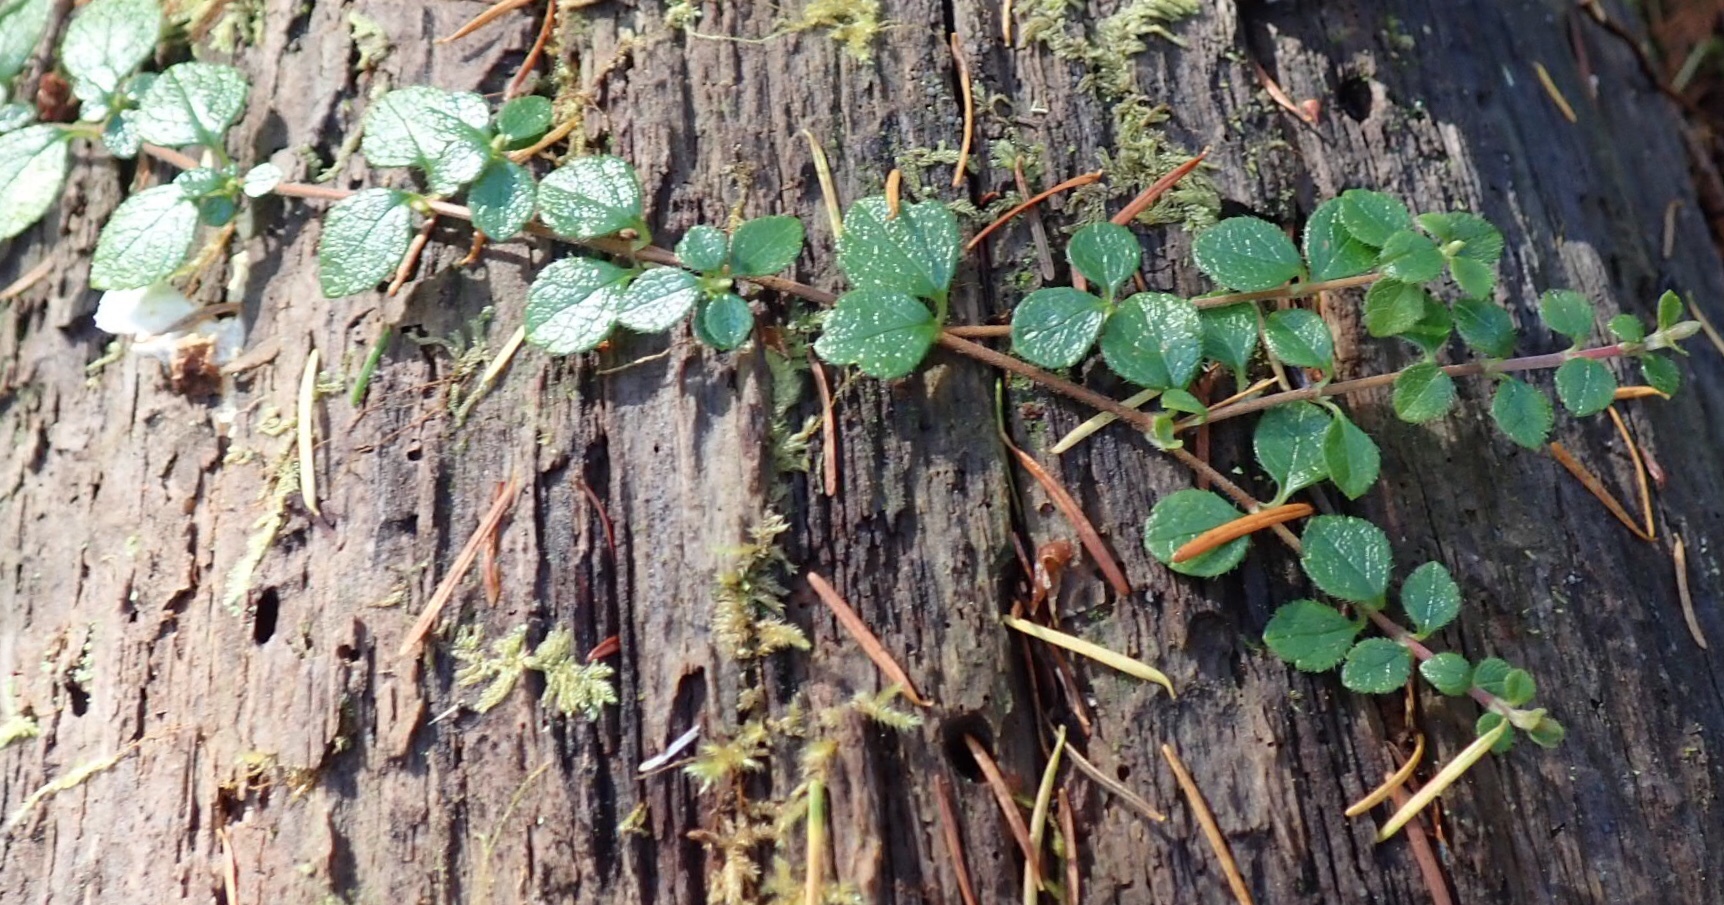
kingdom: Plantae
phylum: Tracheophyta
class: Magnoliopsida
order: Dipsacales
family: Caprifoliaceae
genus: Linnaea
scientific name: Linnaea borealis
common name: Twinflower
